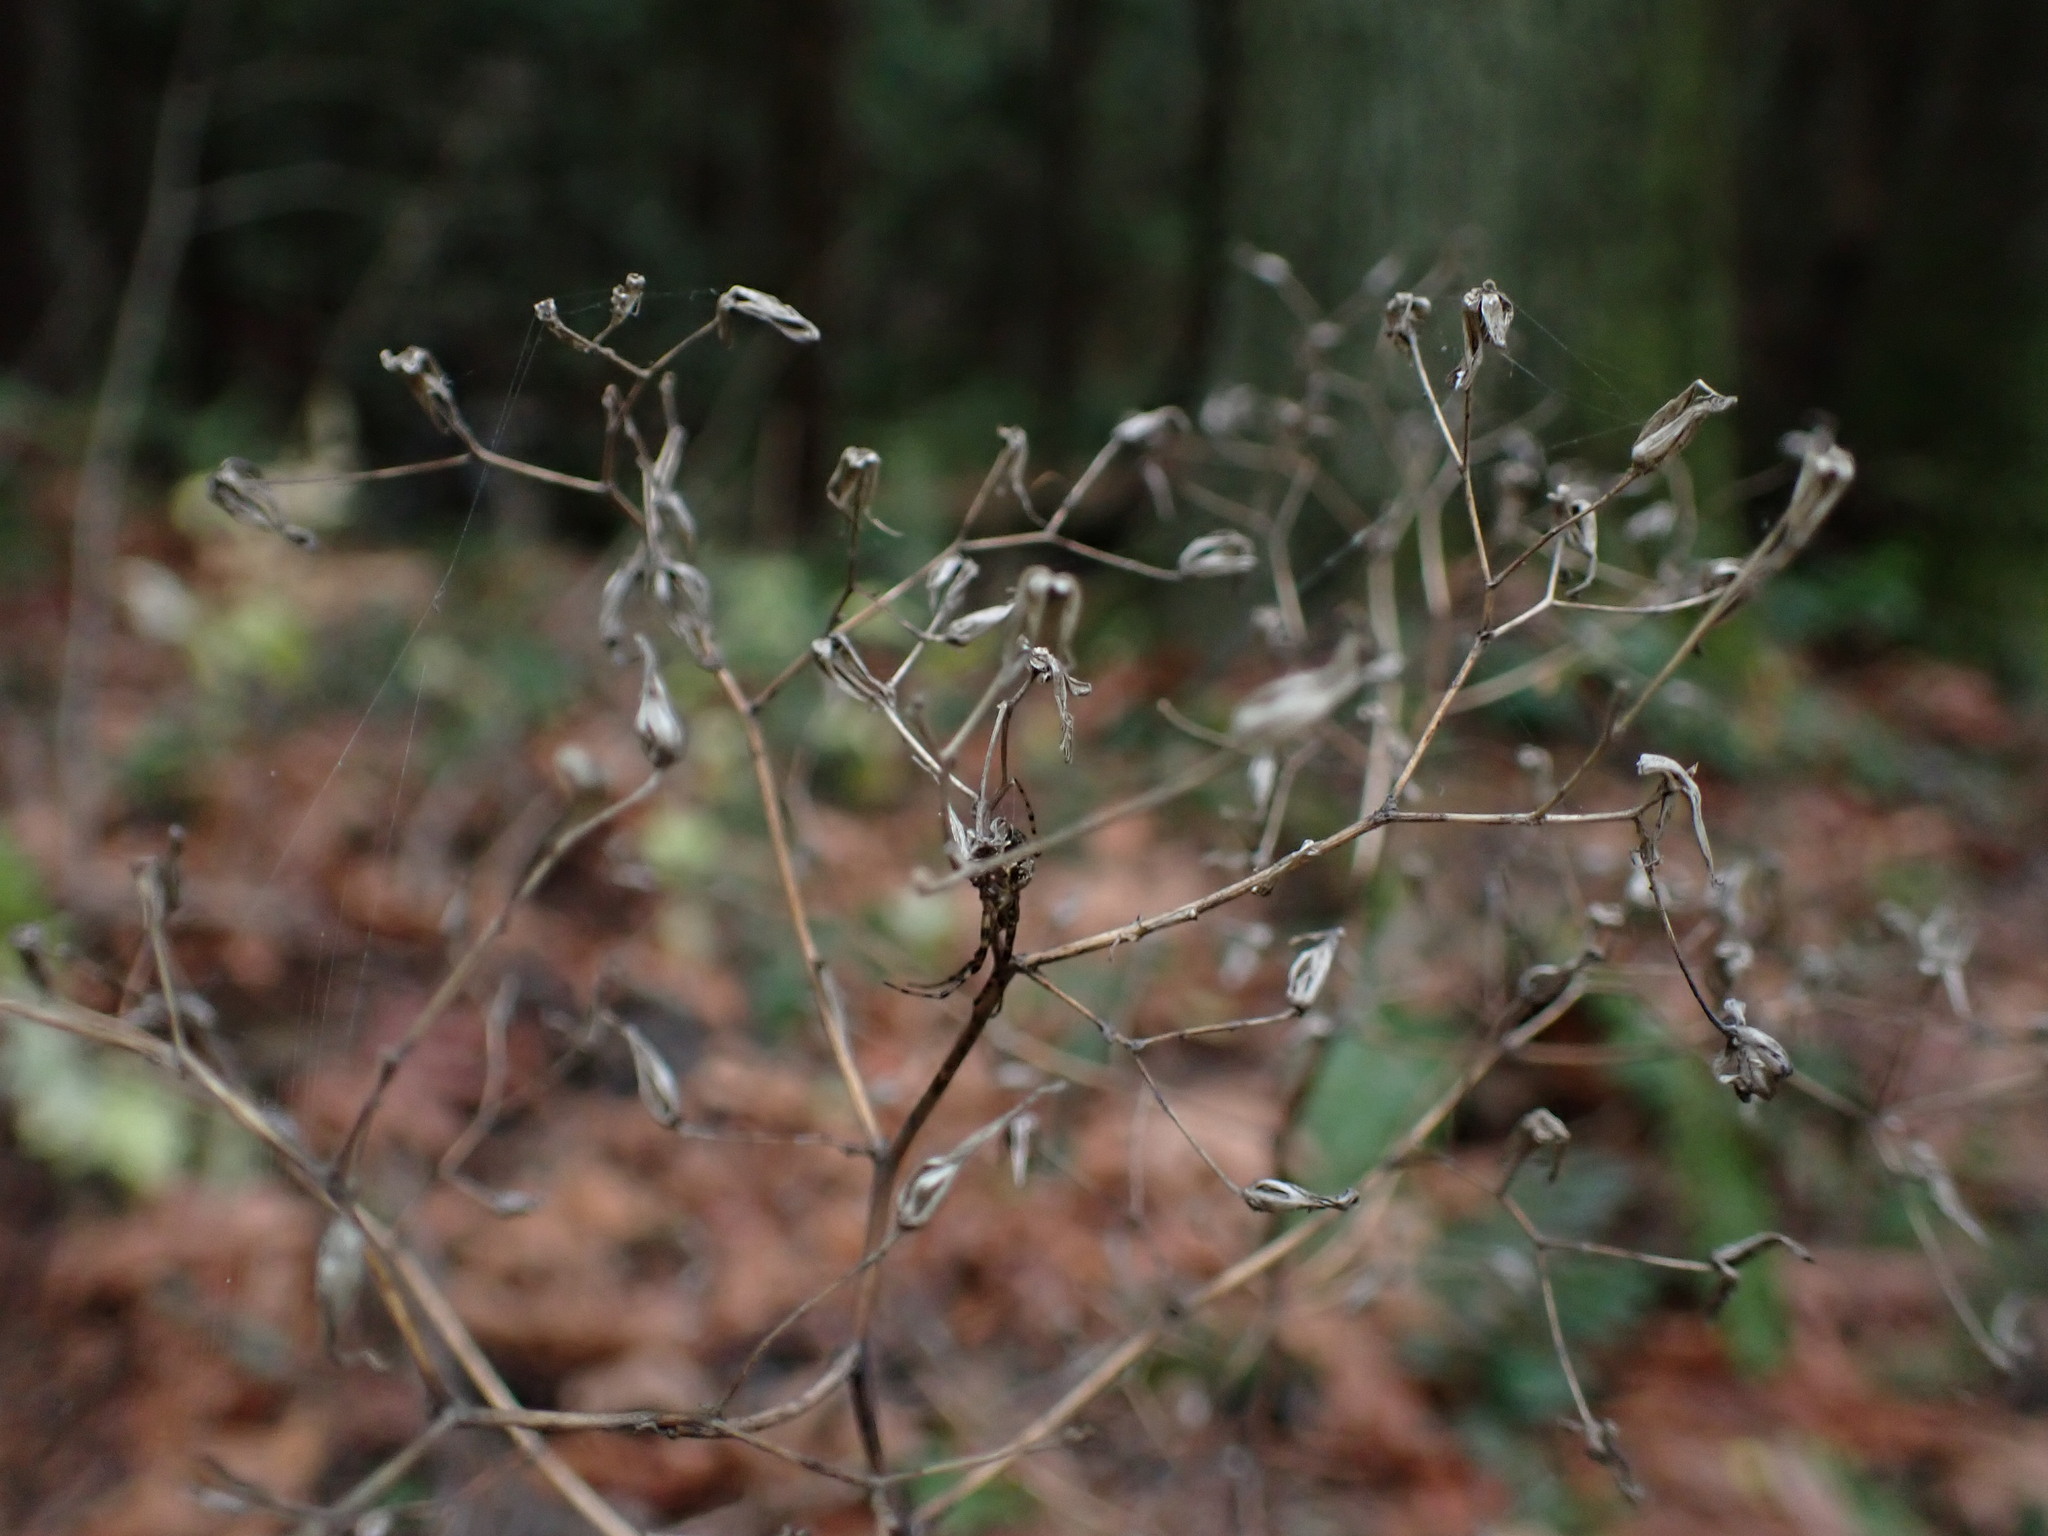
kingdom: Plantae
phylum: Tracheophyta
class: Magnoliopsida
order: Asterales
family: Asteraceae
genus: Mycelis
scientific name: Mycelis muralis
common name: Wall lettuce
